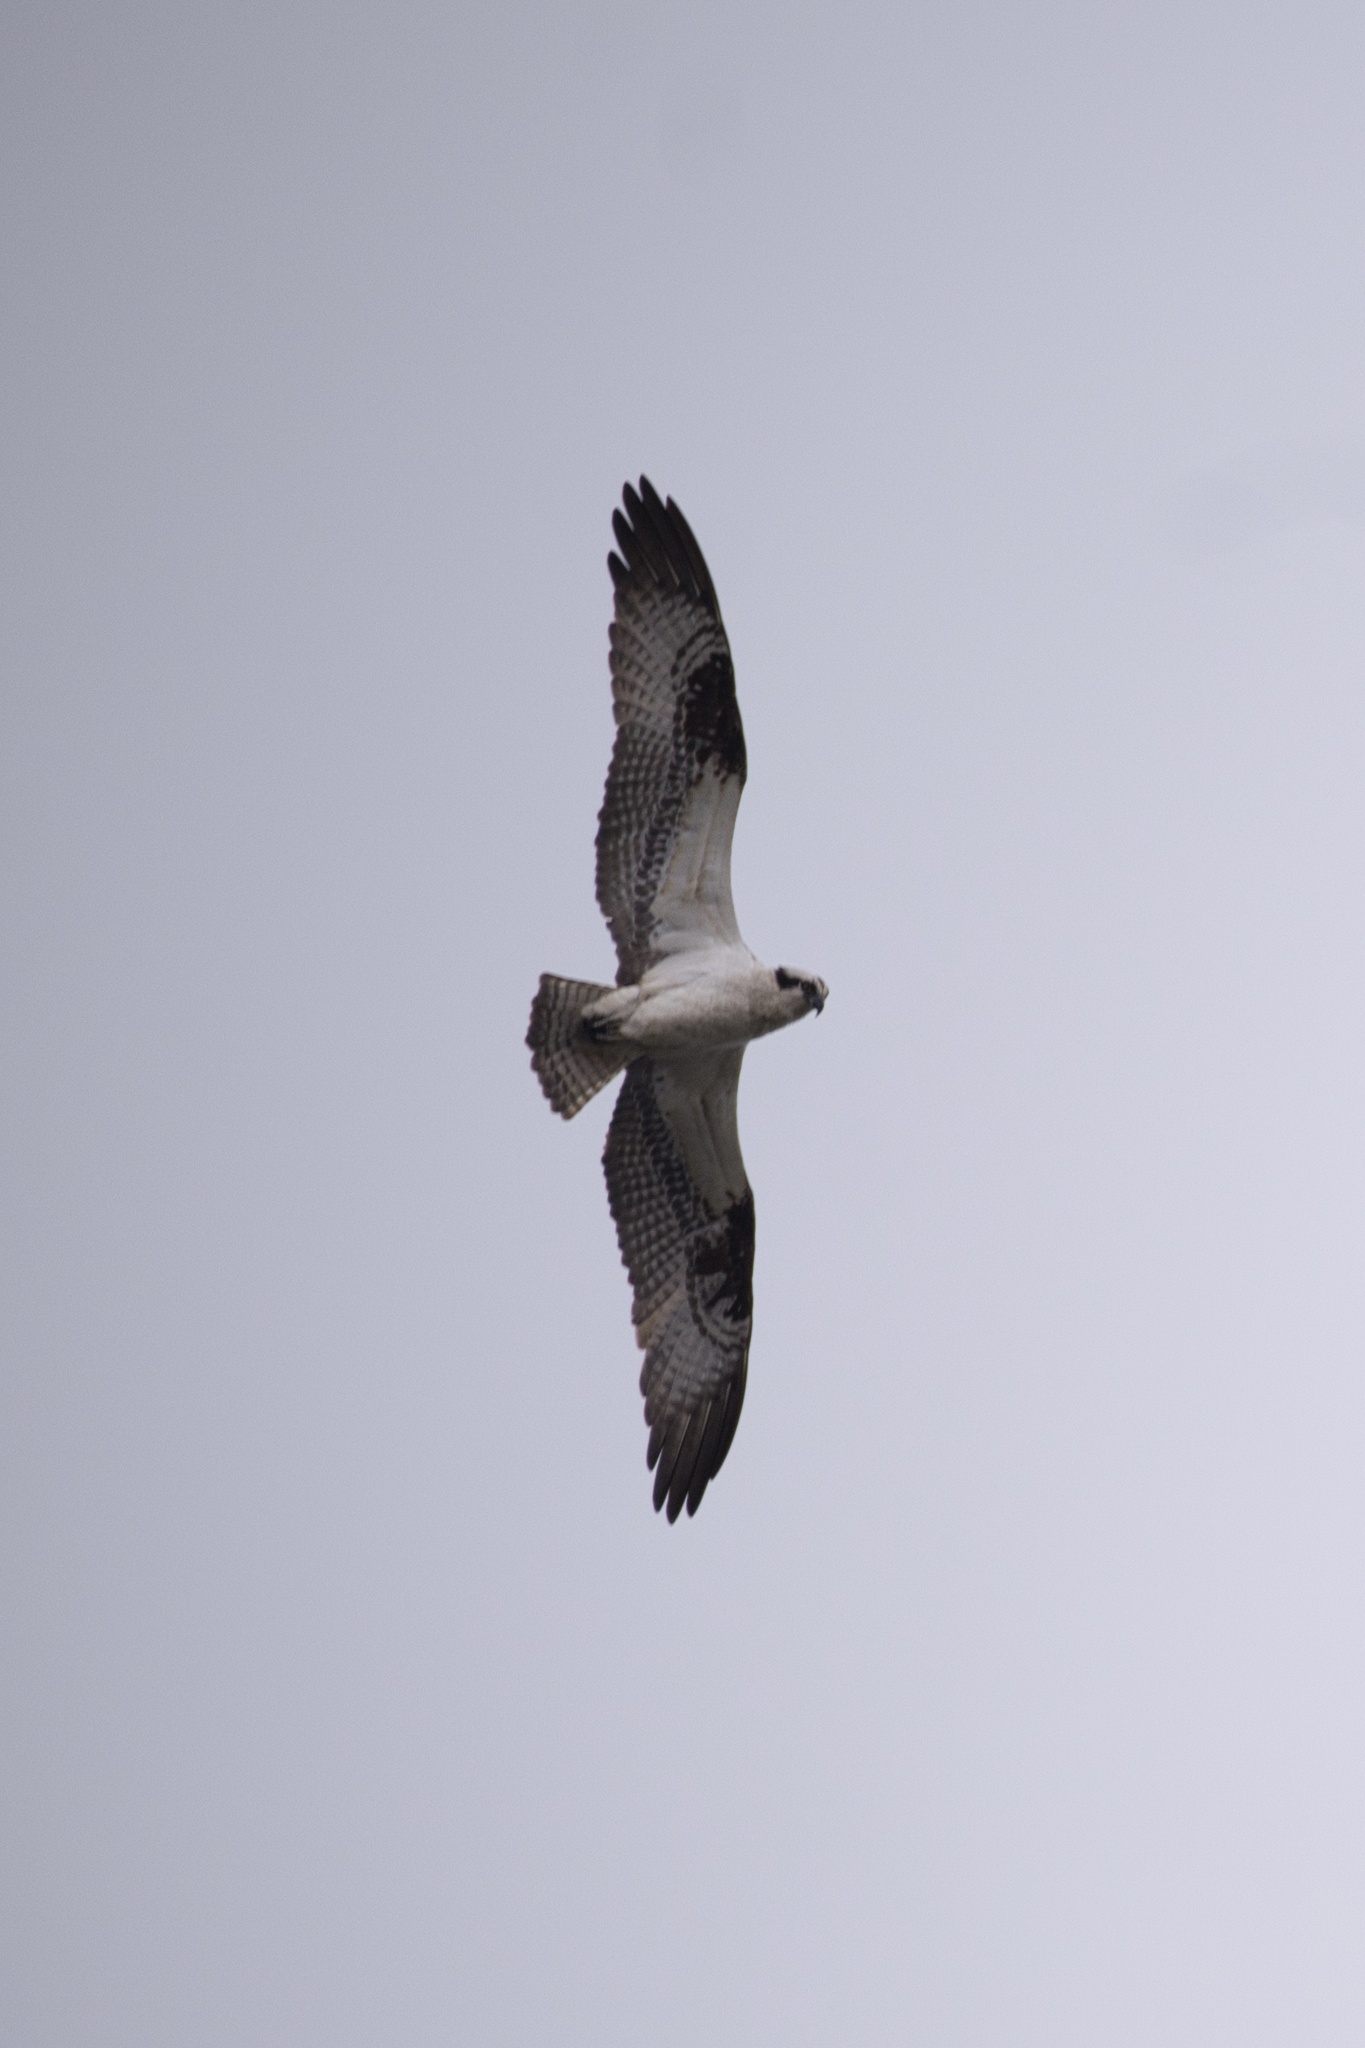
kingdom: Animalia
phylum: Chordata
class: Aves
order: Accipitriformes
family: Pandionidae
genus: Pandion
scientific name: Pandion haliaetus
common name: Osprey
